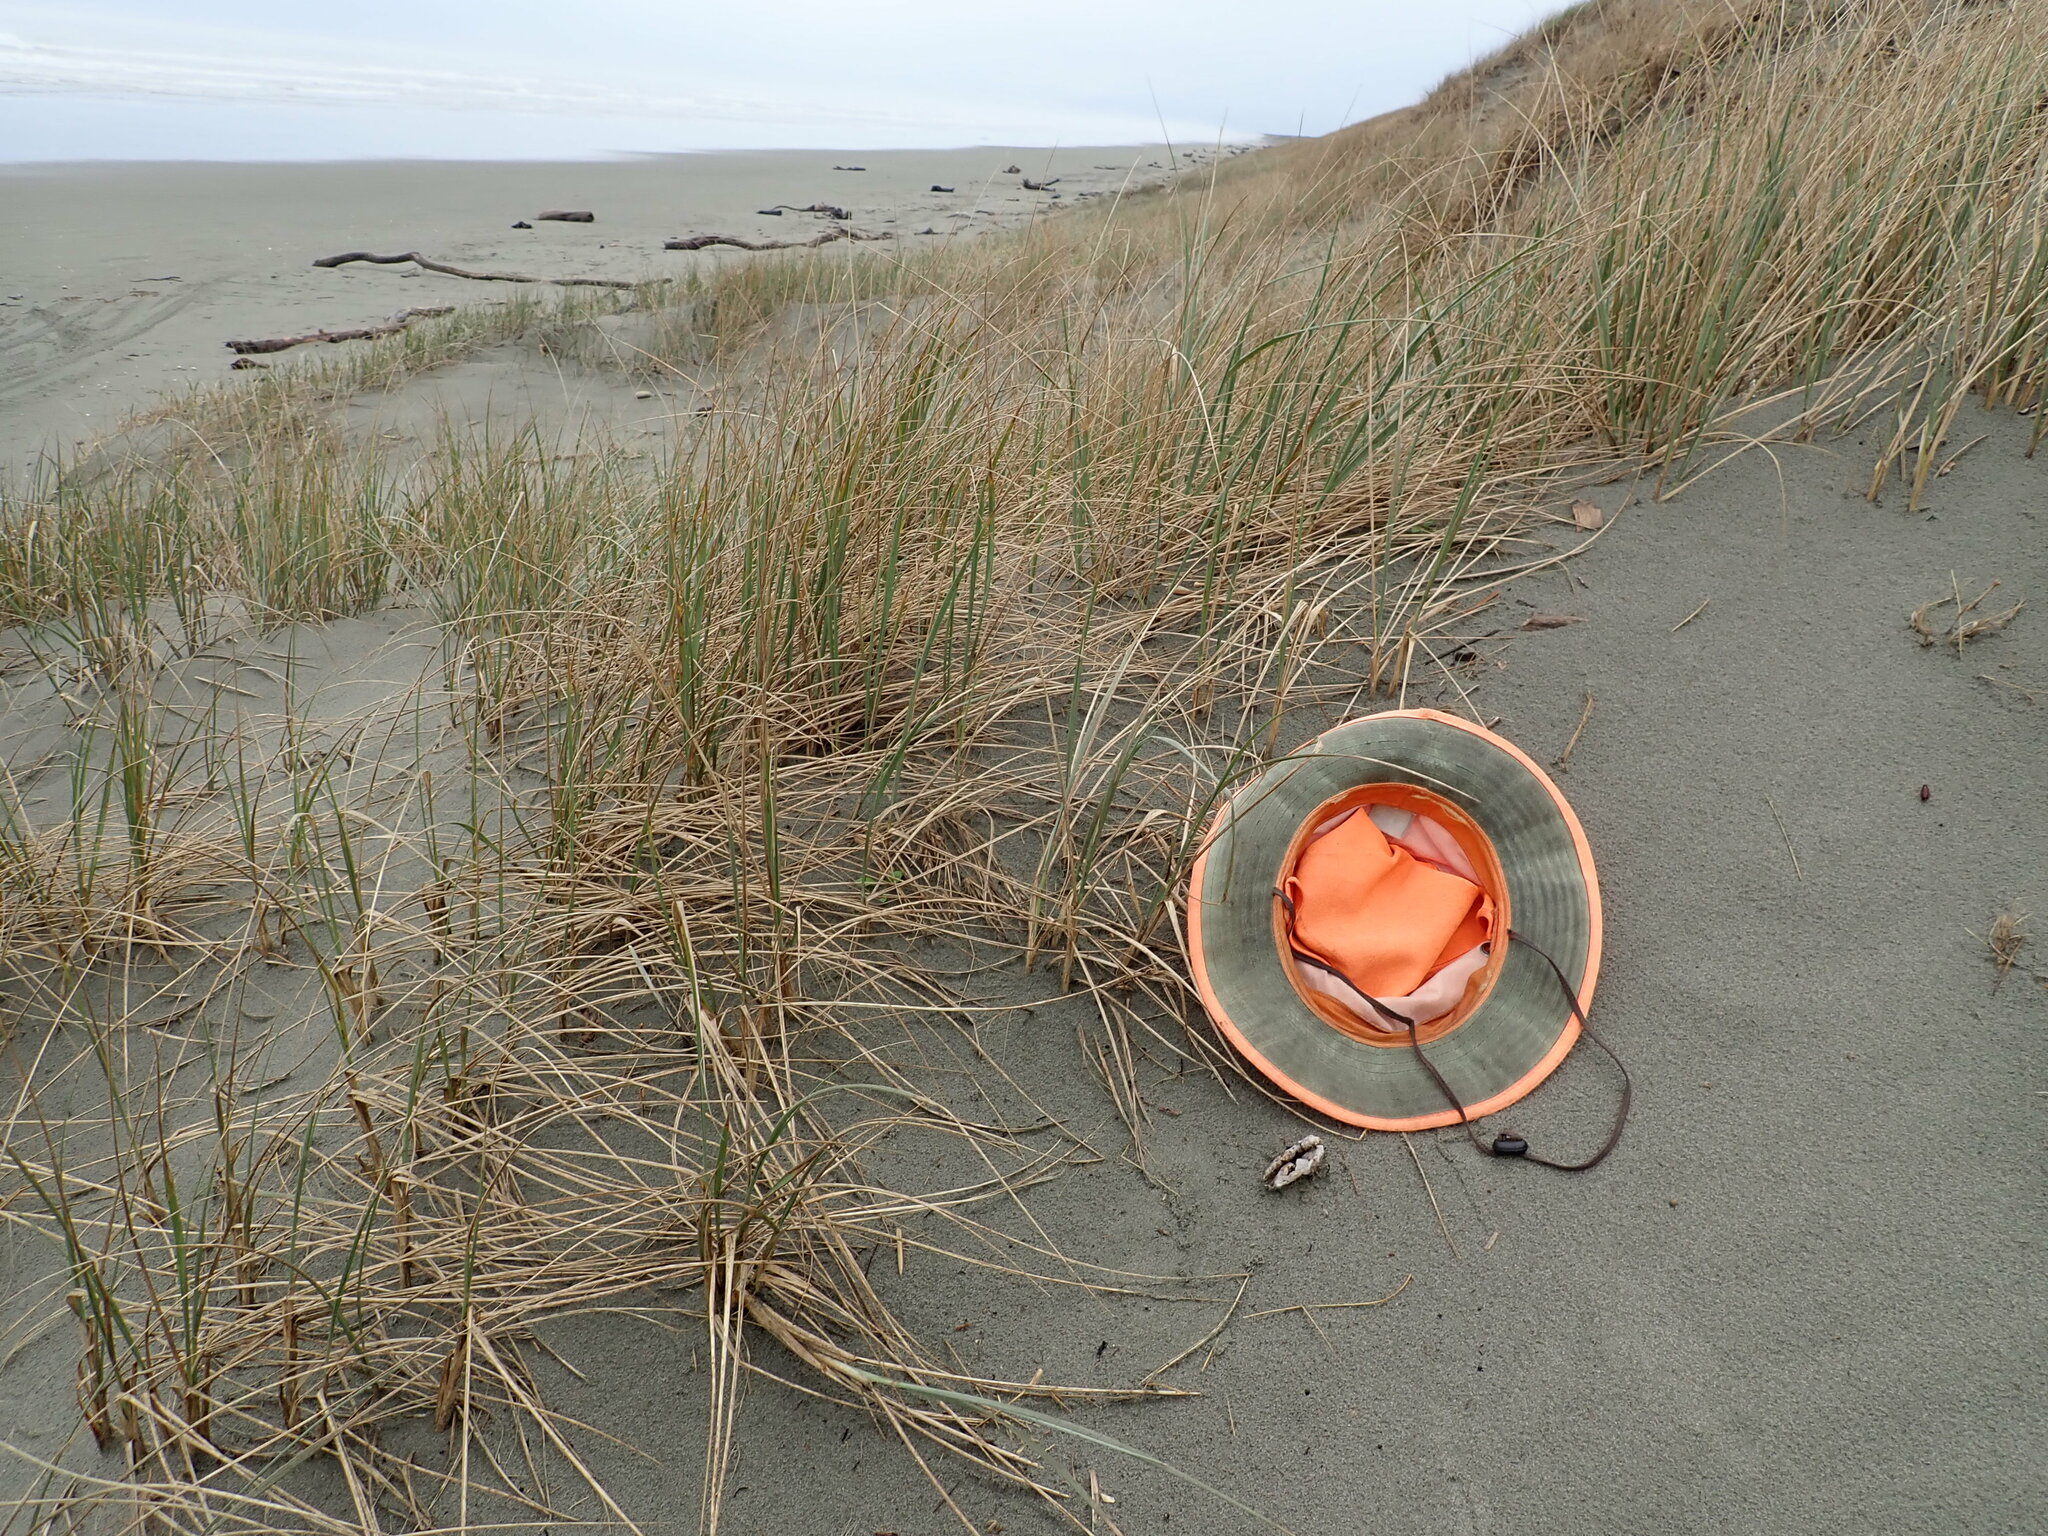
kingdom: Fungi
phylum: Basidiomycota
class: Agaricomycetes
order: Phallales
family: Phallaceae
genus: Ileodictyon
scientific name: Ileodictyon cibarium
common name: Basket fungus
